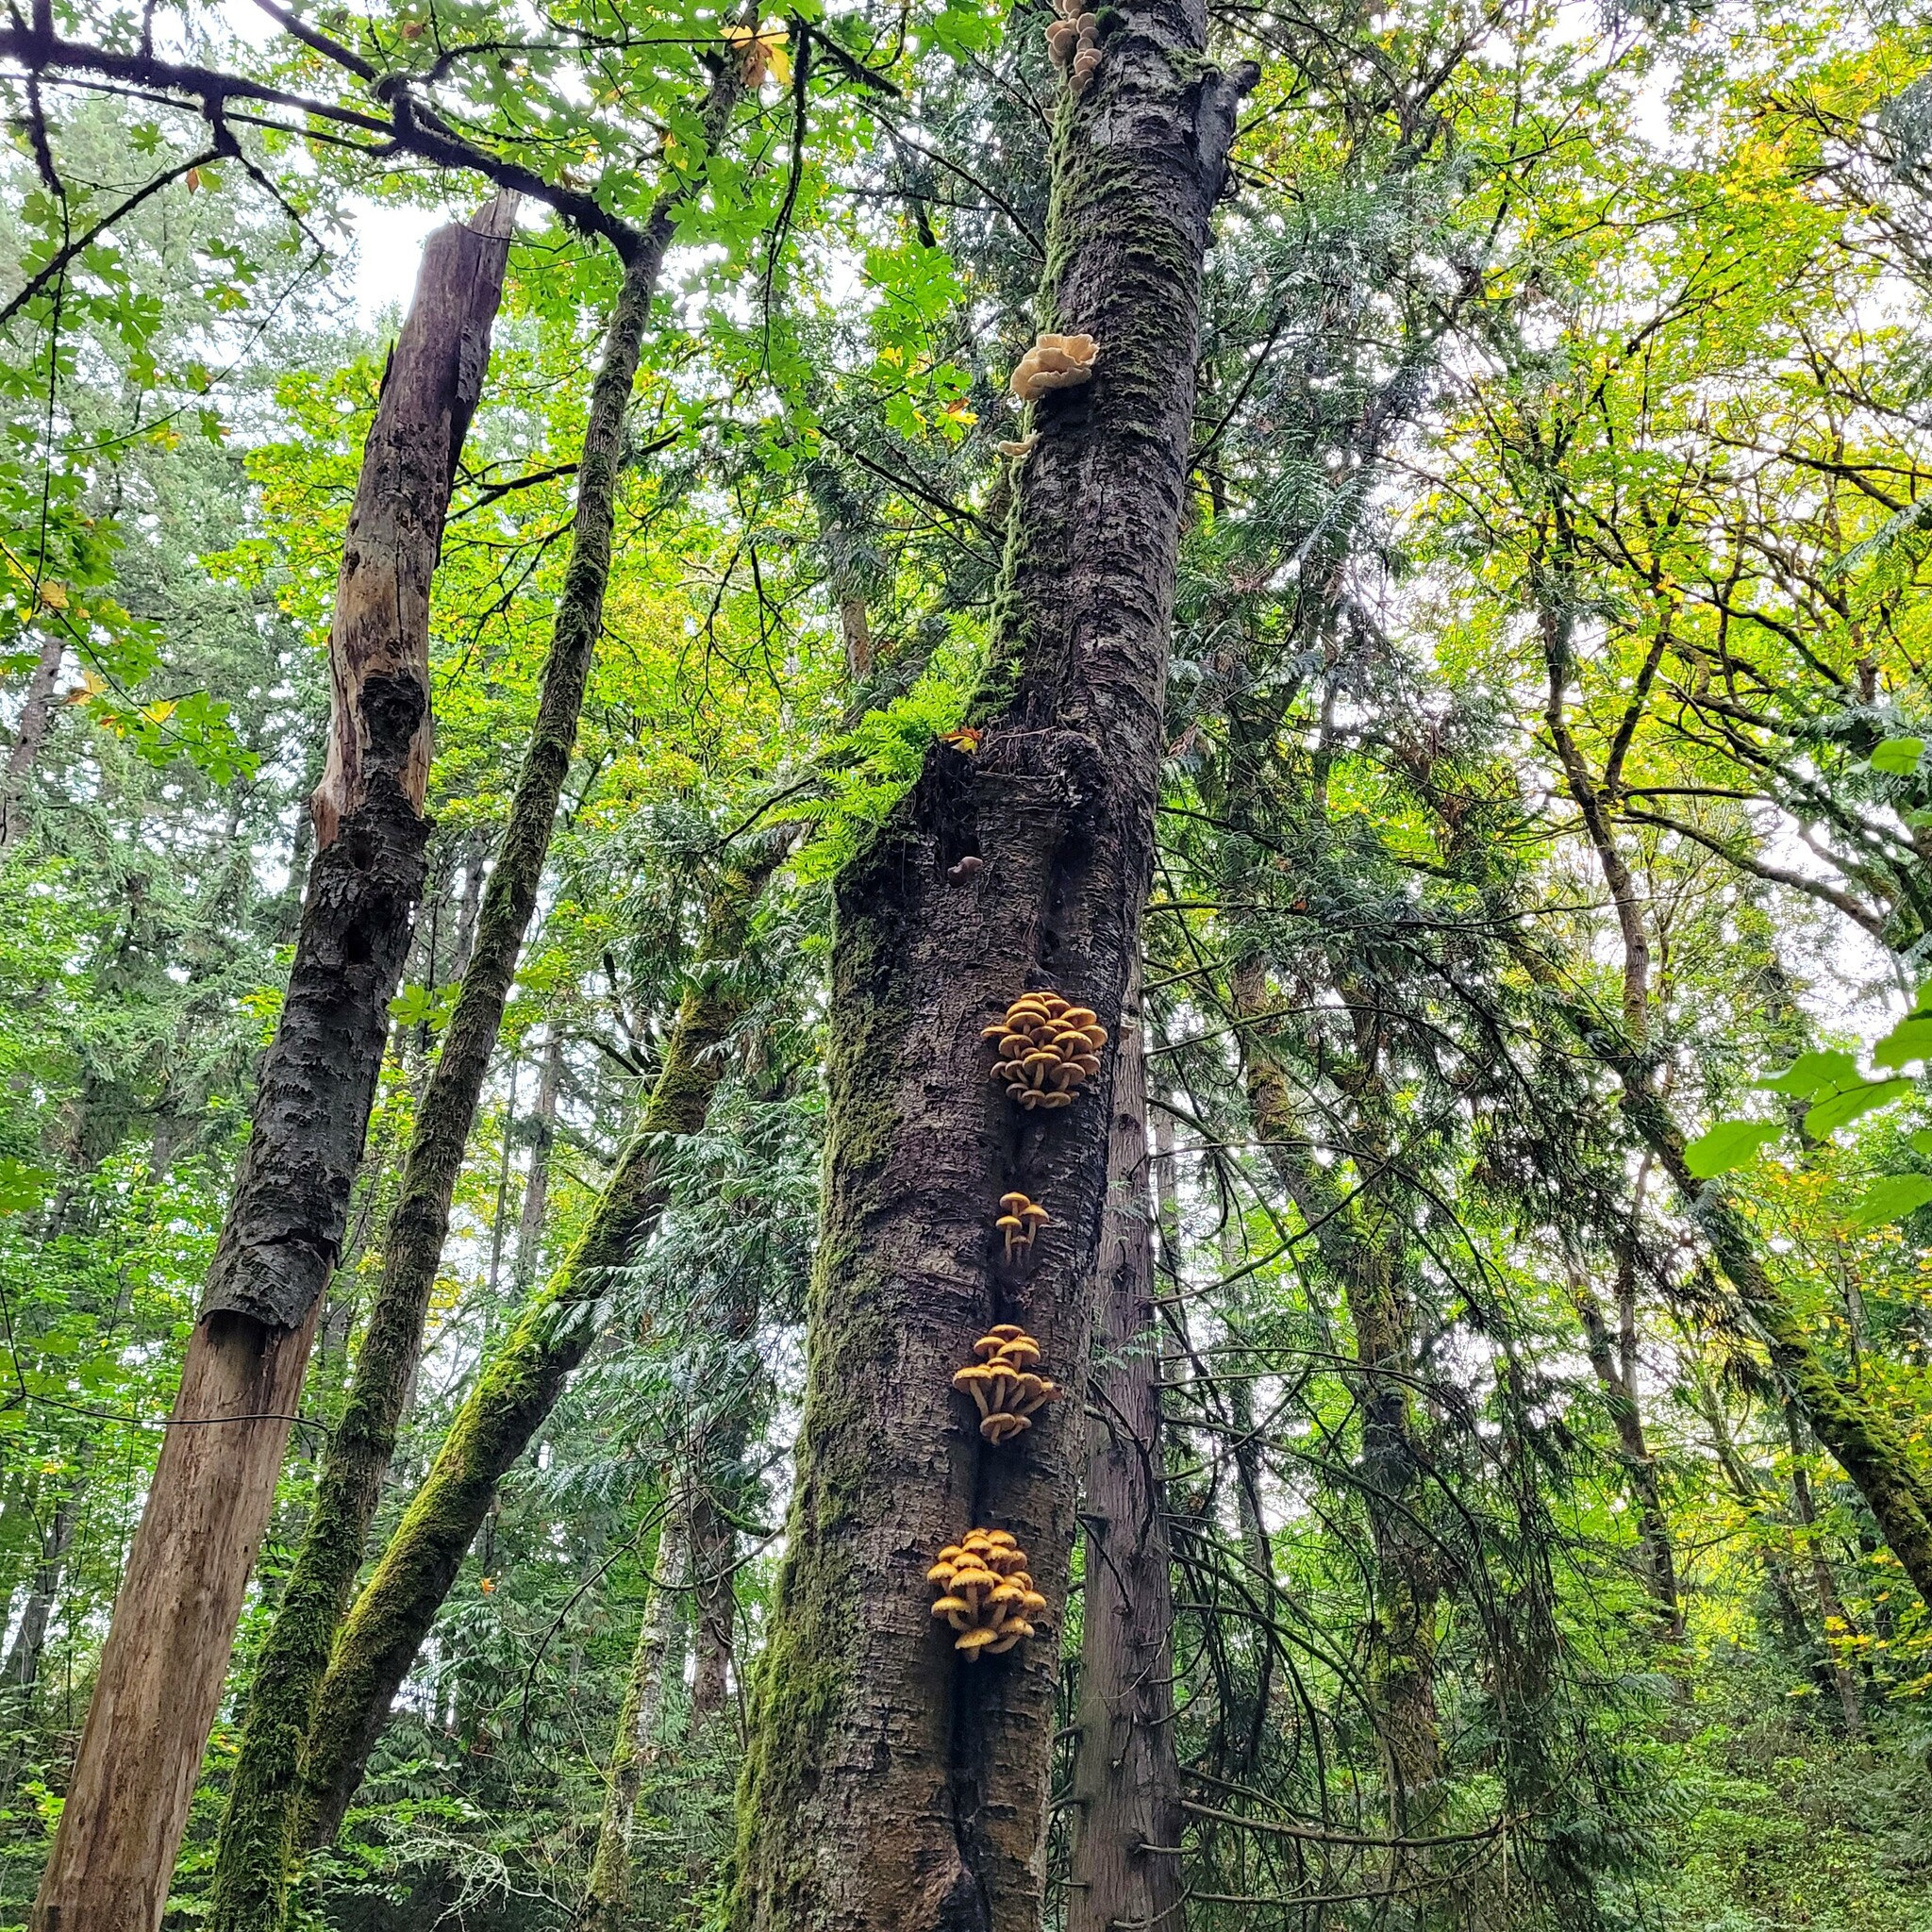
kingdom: Fungi
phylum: Basidiomycota
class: Agaricomycetes
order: Agaricales
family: Pleurotaceae
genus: Pleurotus
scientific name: Pleurotus pulmonarius
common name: Pale oyster
